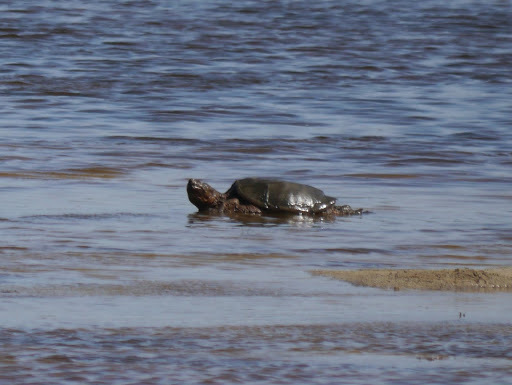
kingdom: Animalia
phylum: Chordata
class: Testudines
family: Chelydridae
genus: Chelydra
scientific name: Chelydra serpentina
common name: Common snapping turtle
